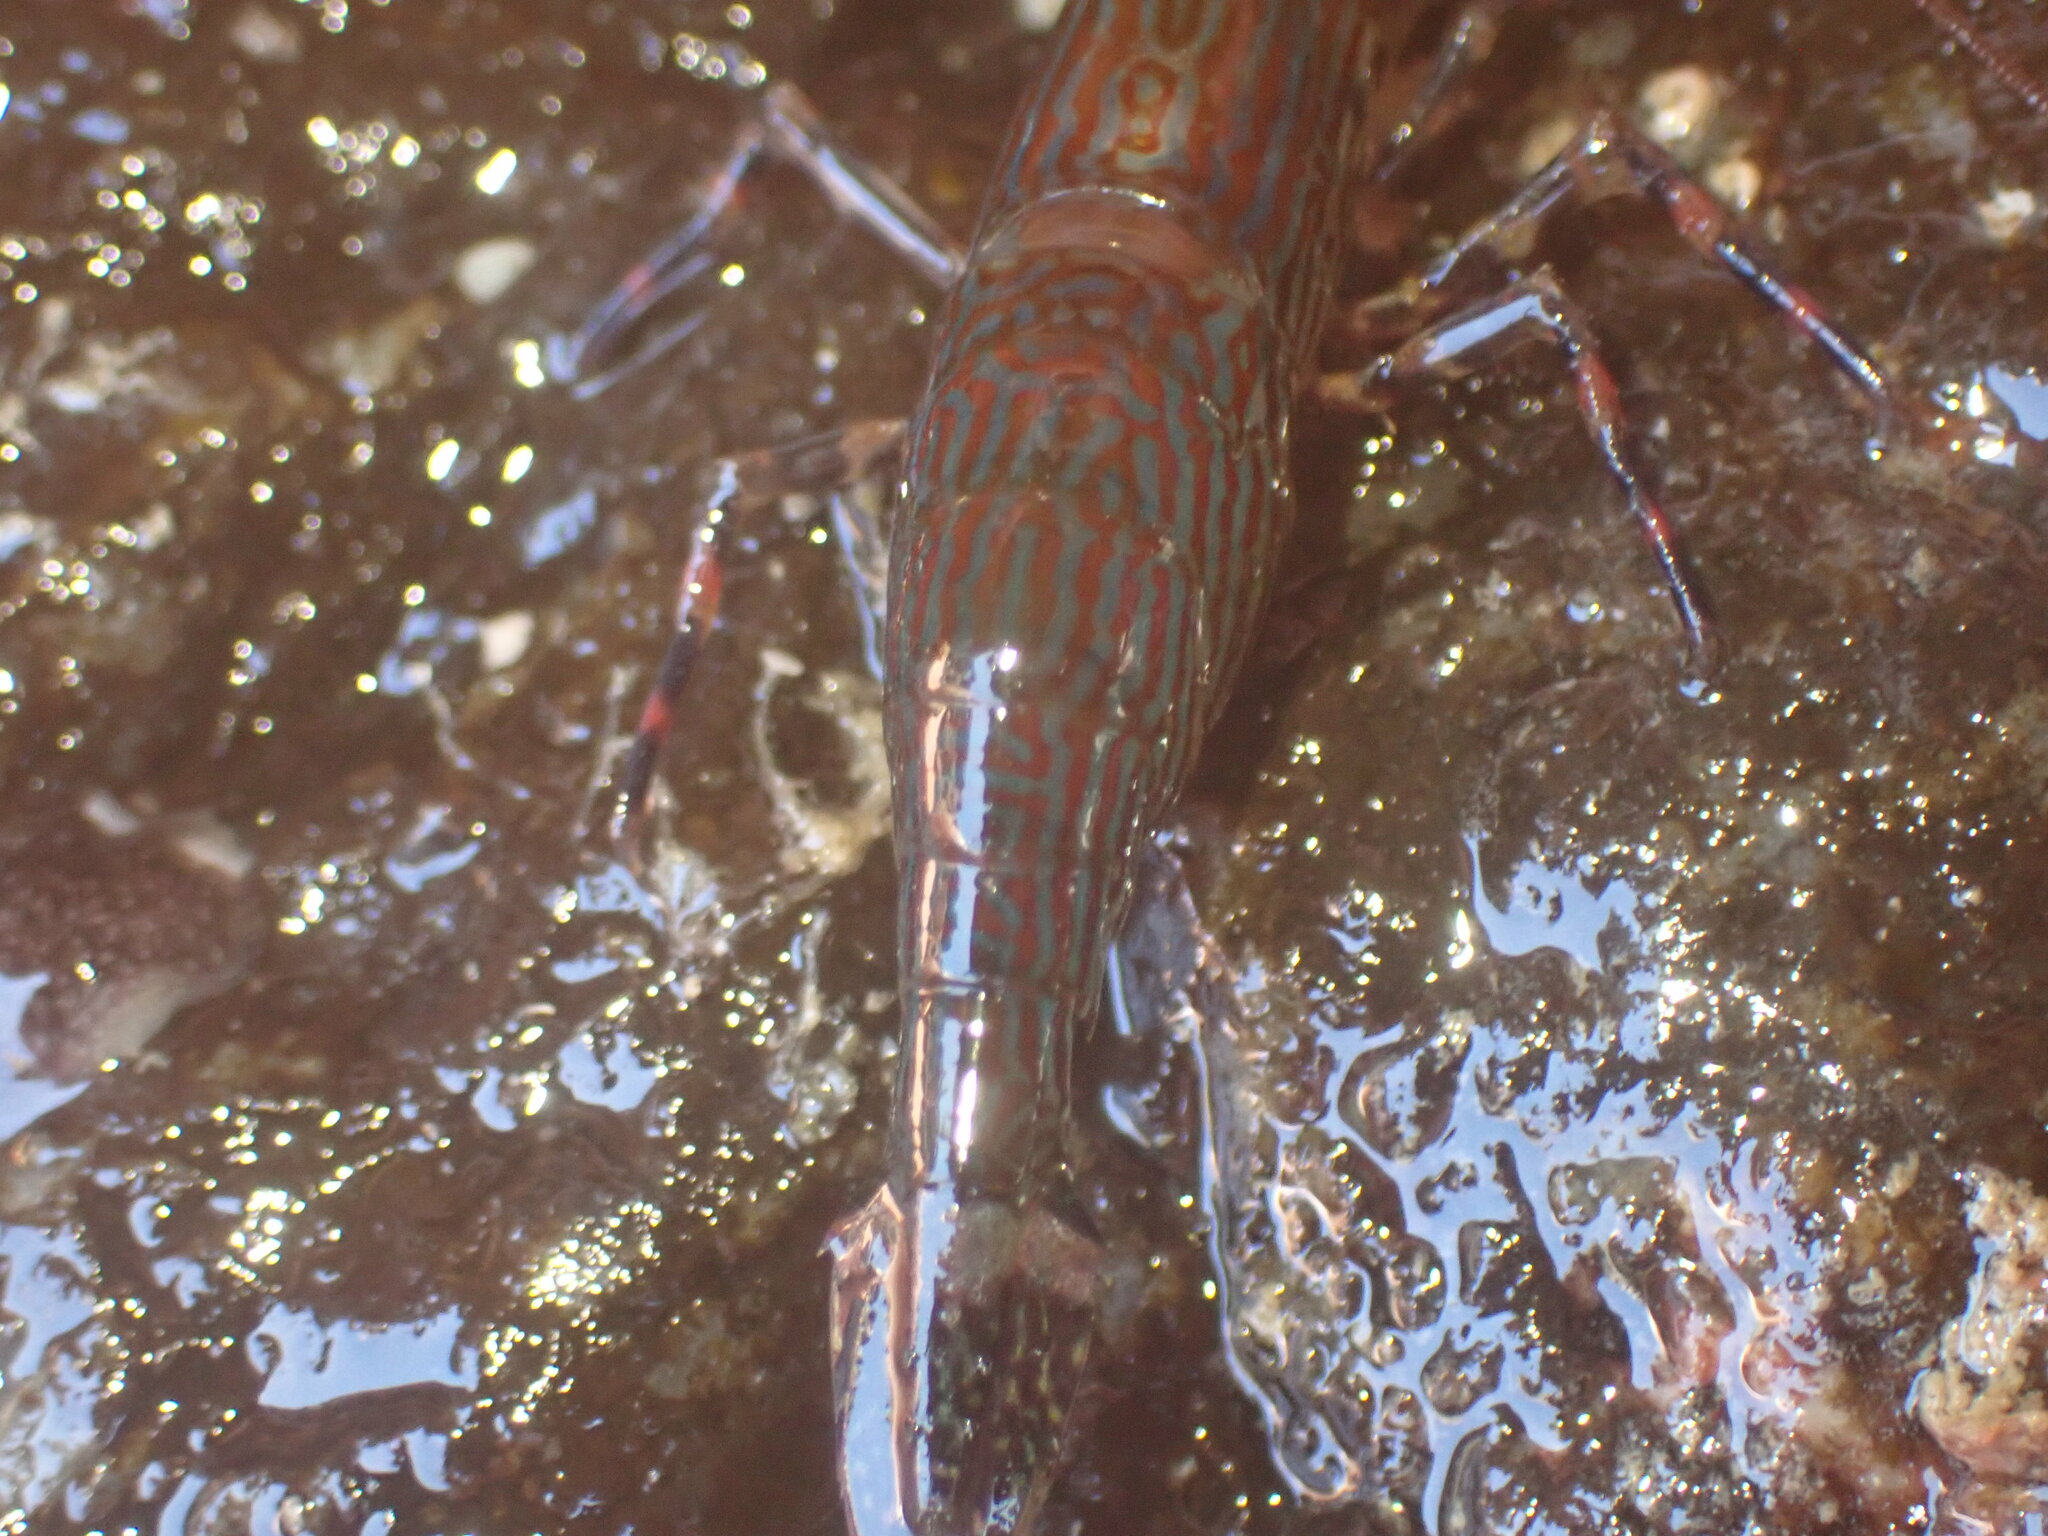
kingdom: Animalia
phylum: Arthropoda
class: Malacostraca
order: Decapoda
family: Hippolytidae
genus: Alope
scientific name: Alope spinifrons
